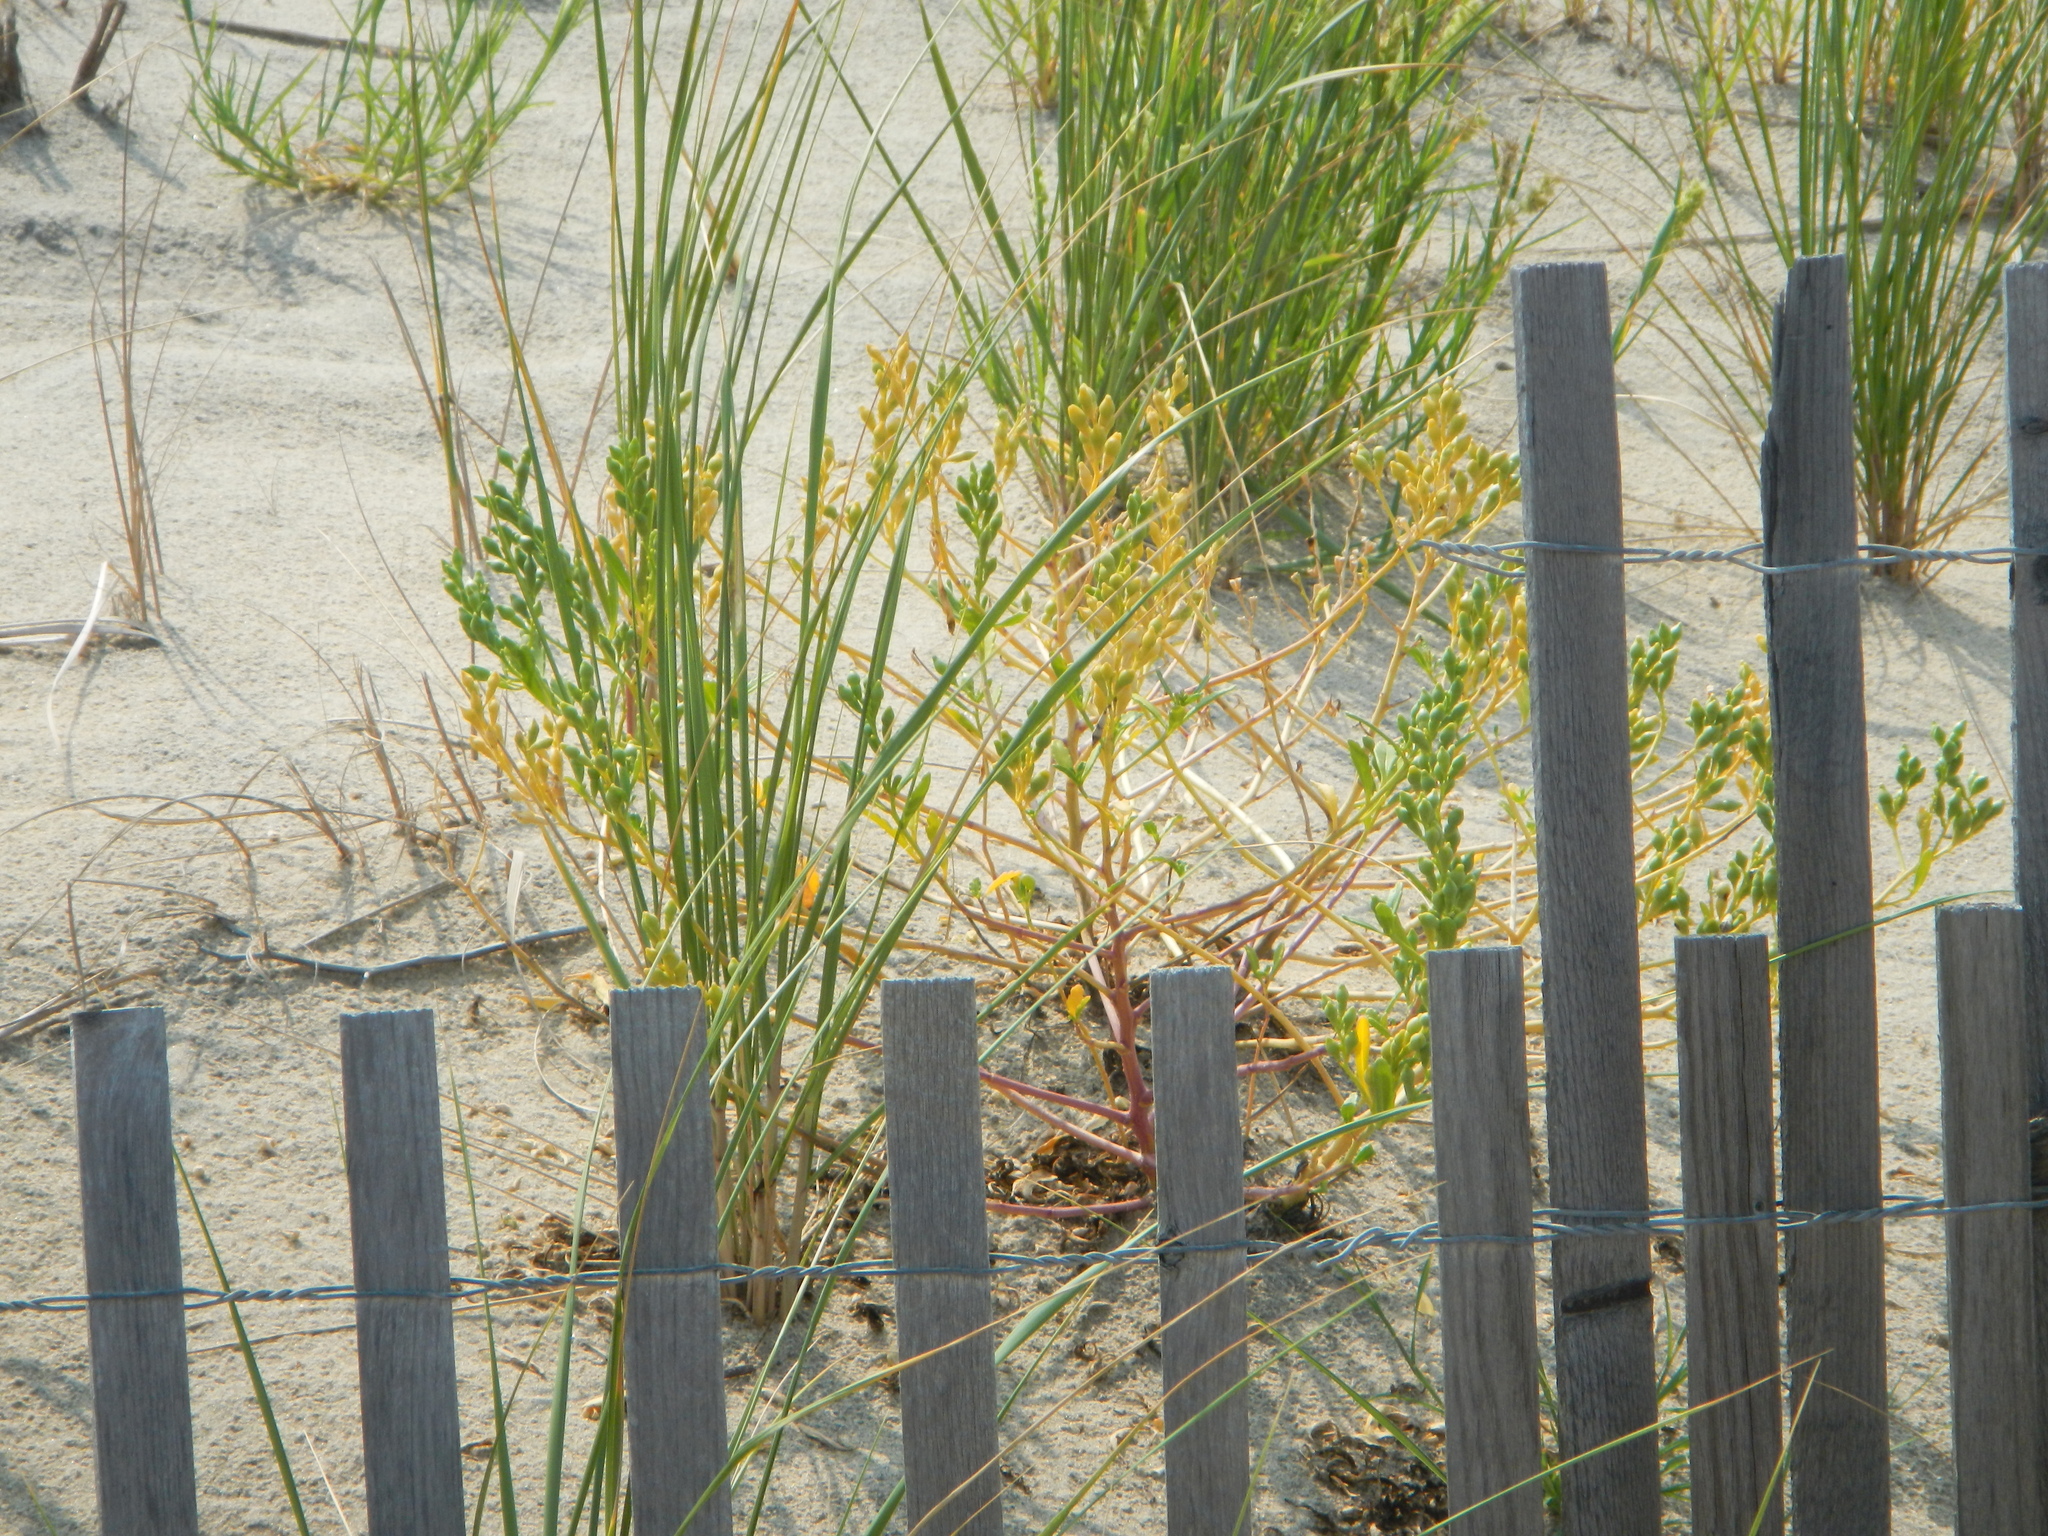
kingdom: Plantae
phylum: Tracheophyta
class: Magnoliopsida
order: Brassicales
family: Brassicaceae
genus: Cakile
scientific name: Cakile edentula
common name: American sea rocket
